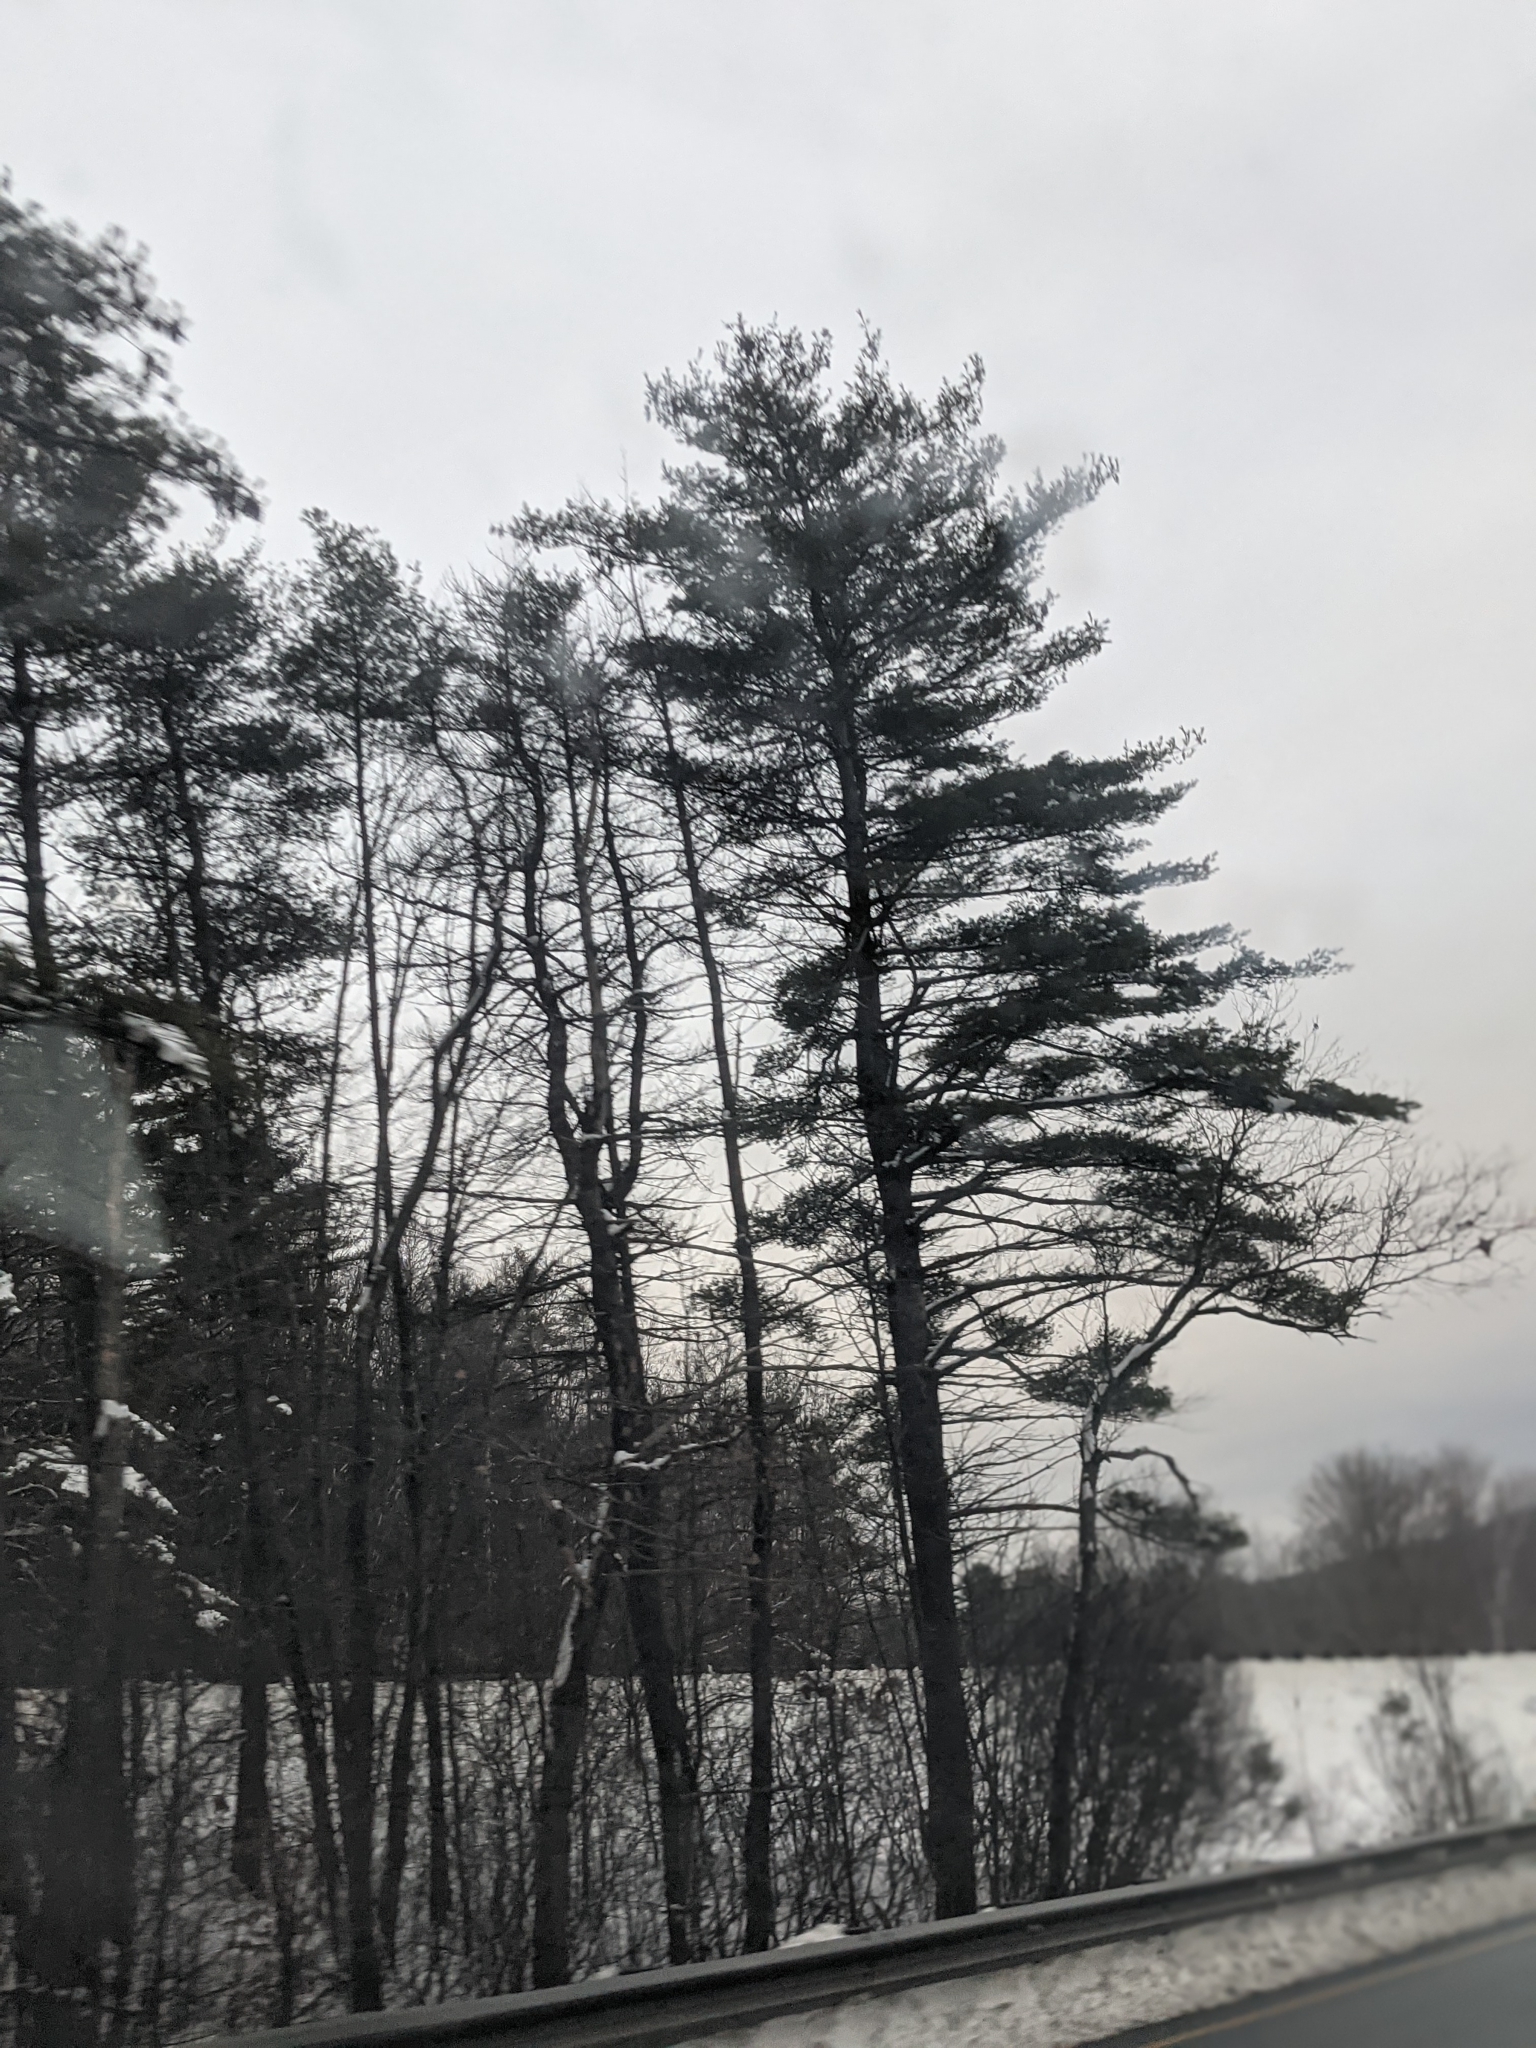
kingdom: Plantae
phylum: Tracheophyta
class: Pinopsida
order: Pinales
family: Pinaceae
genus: Pinus
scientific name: Pinus strobus
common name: Weymouth pine
